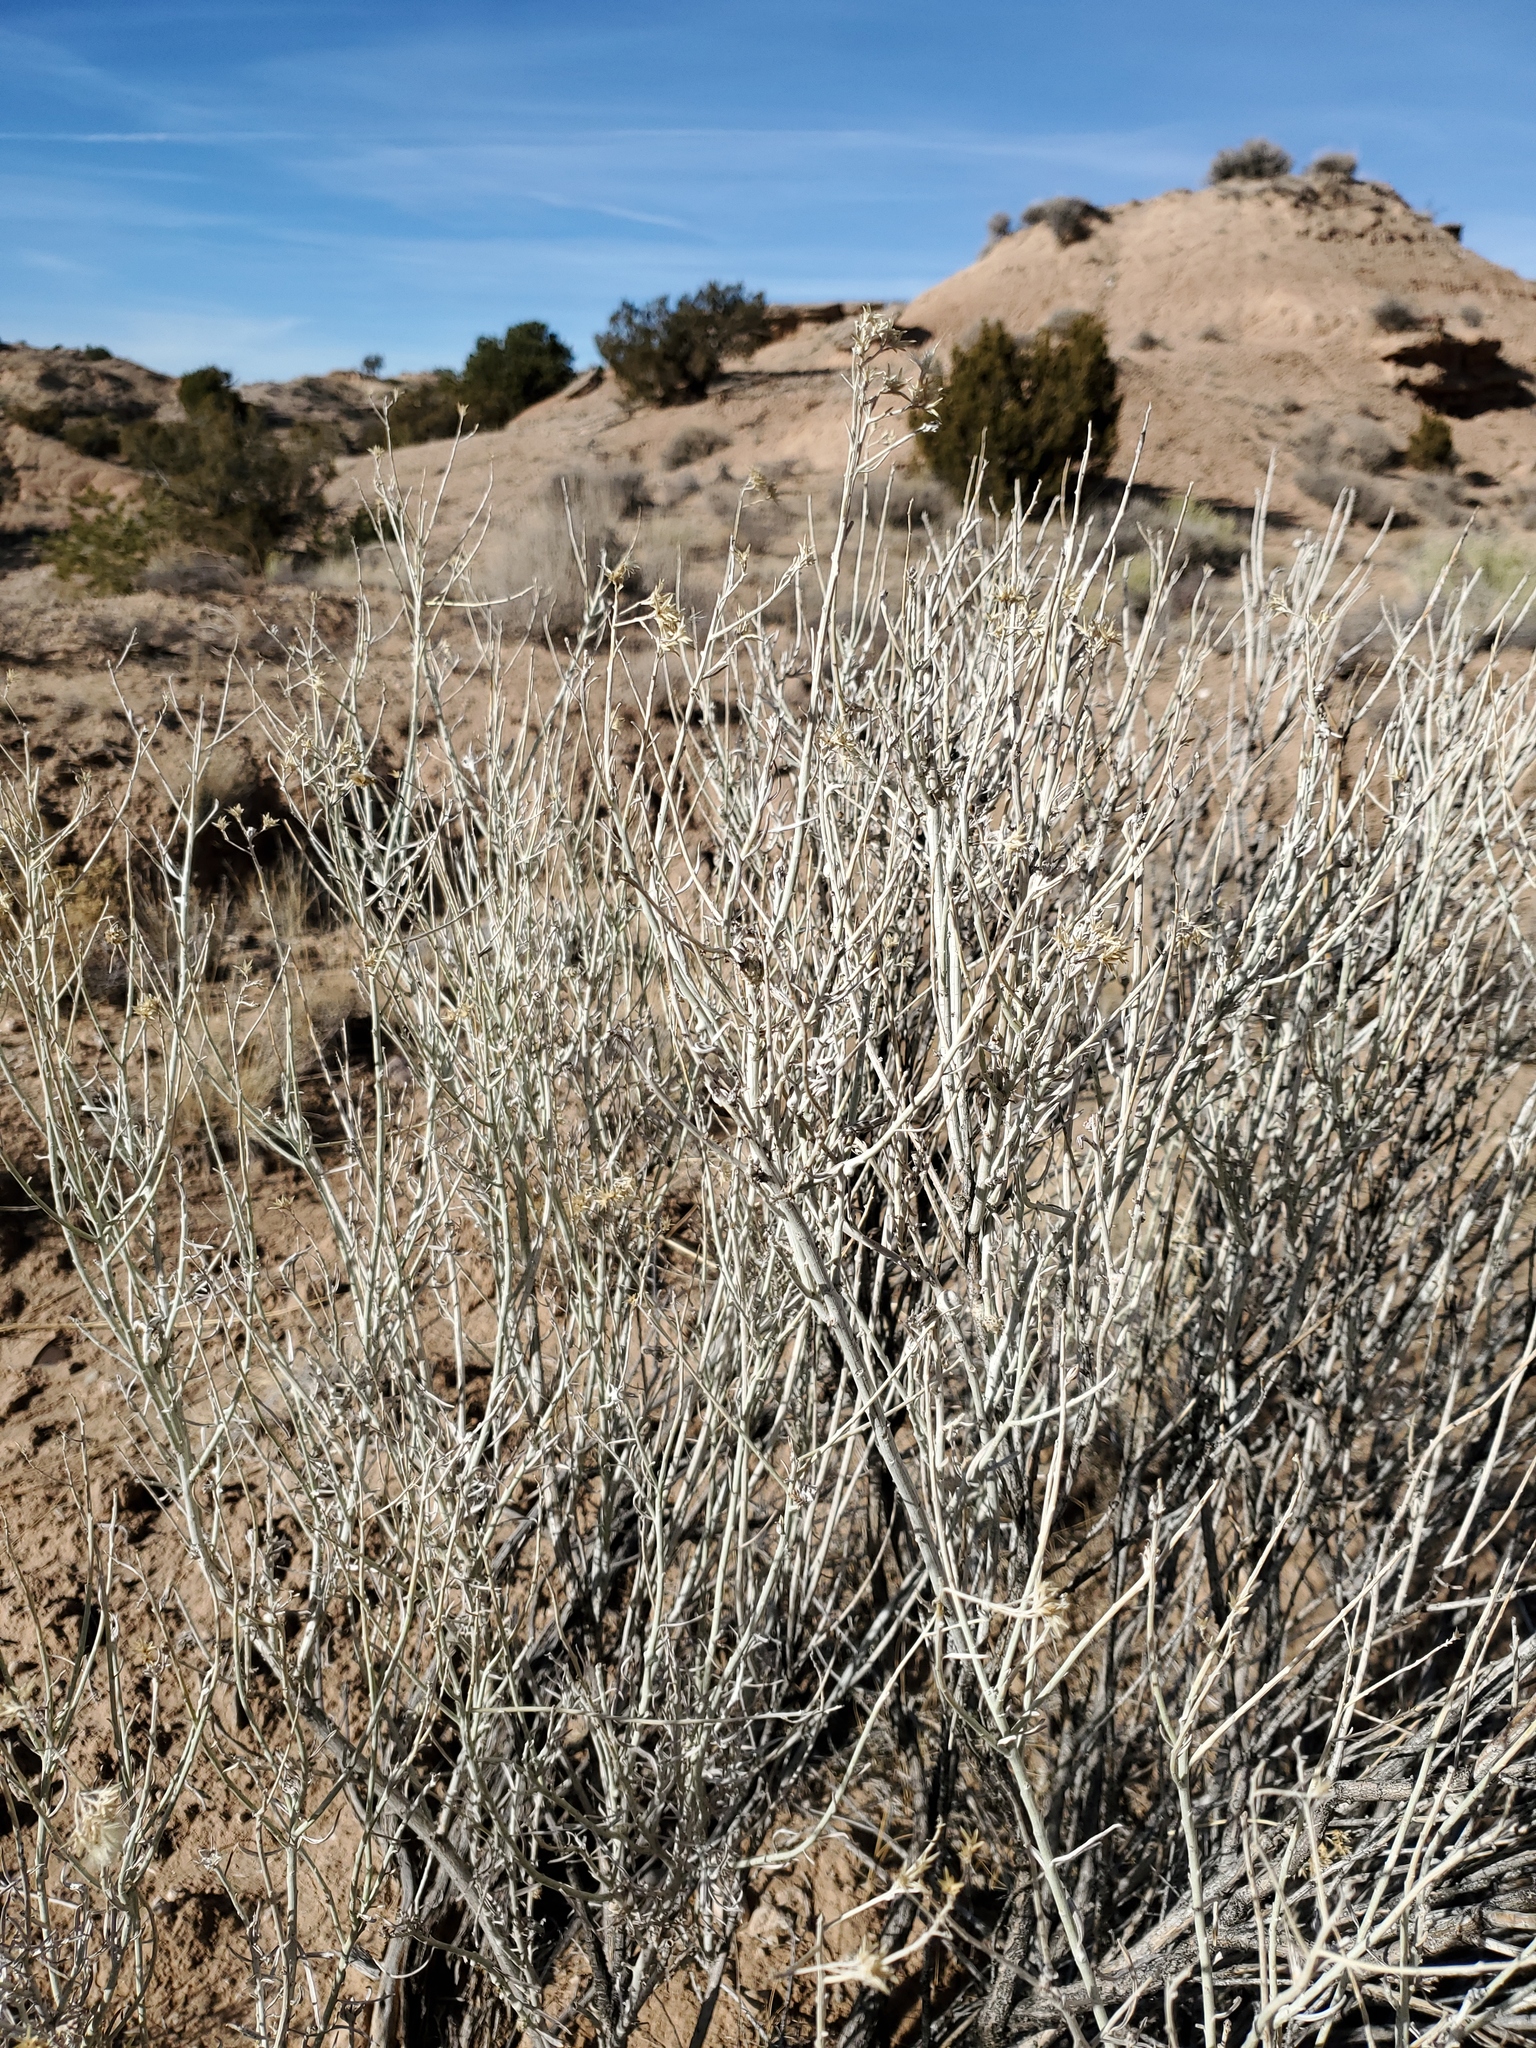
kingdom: Plantae
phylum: Tracheophyta
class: Magnoliopsida
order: Asterales
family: Asteraceae
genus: Ericameria
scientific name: Ericameria nauseosa
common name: Rubber rabbitbrush
